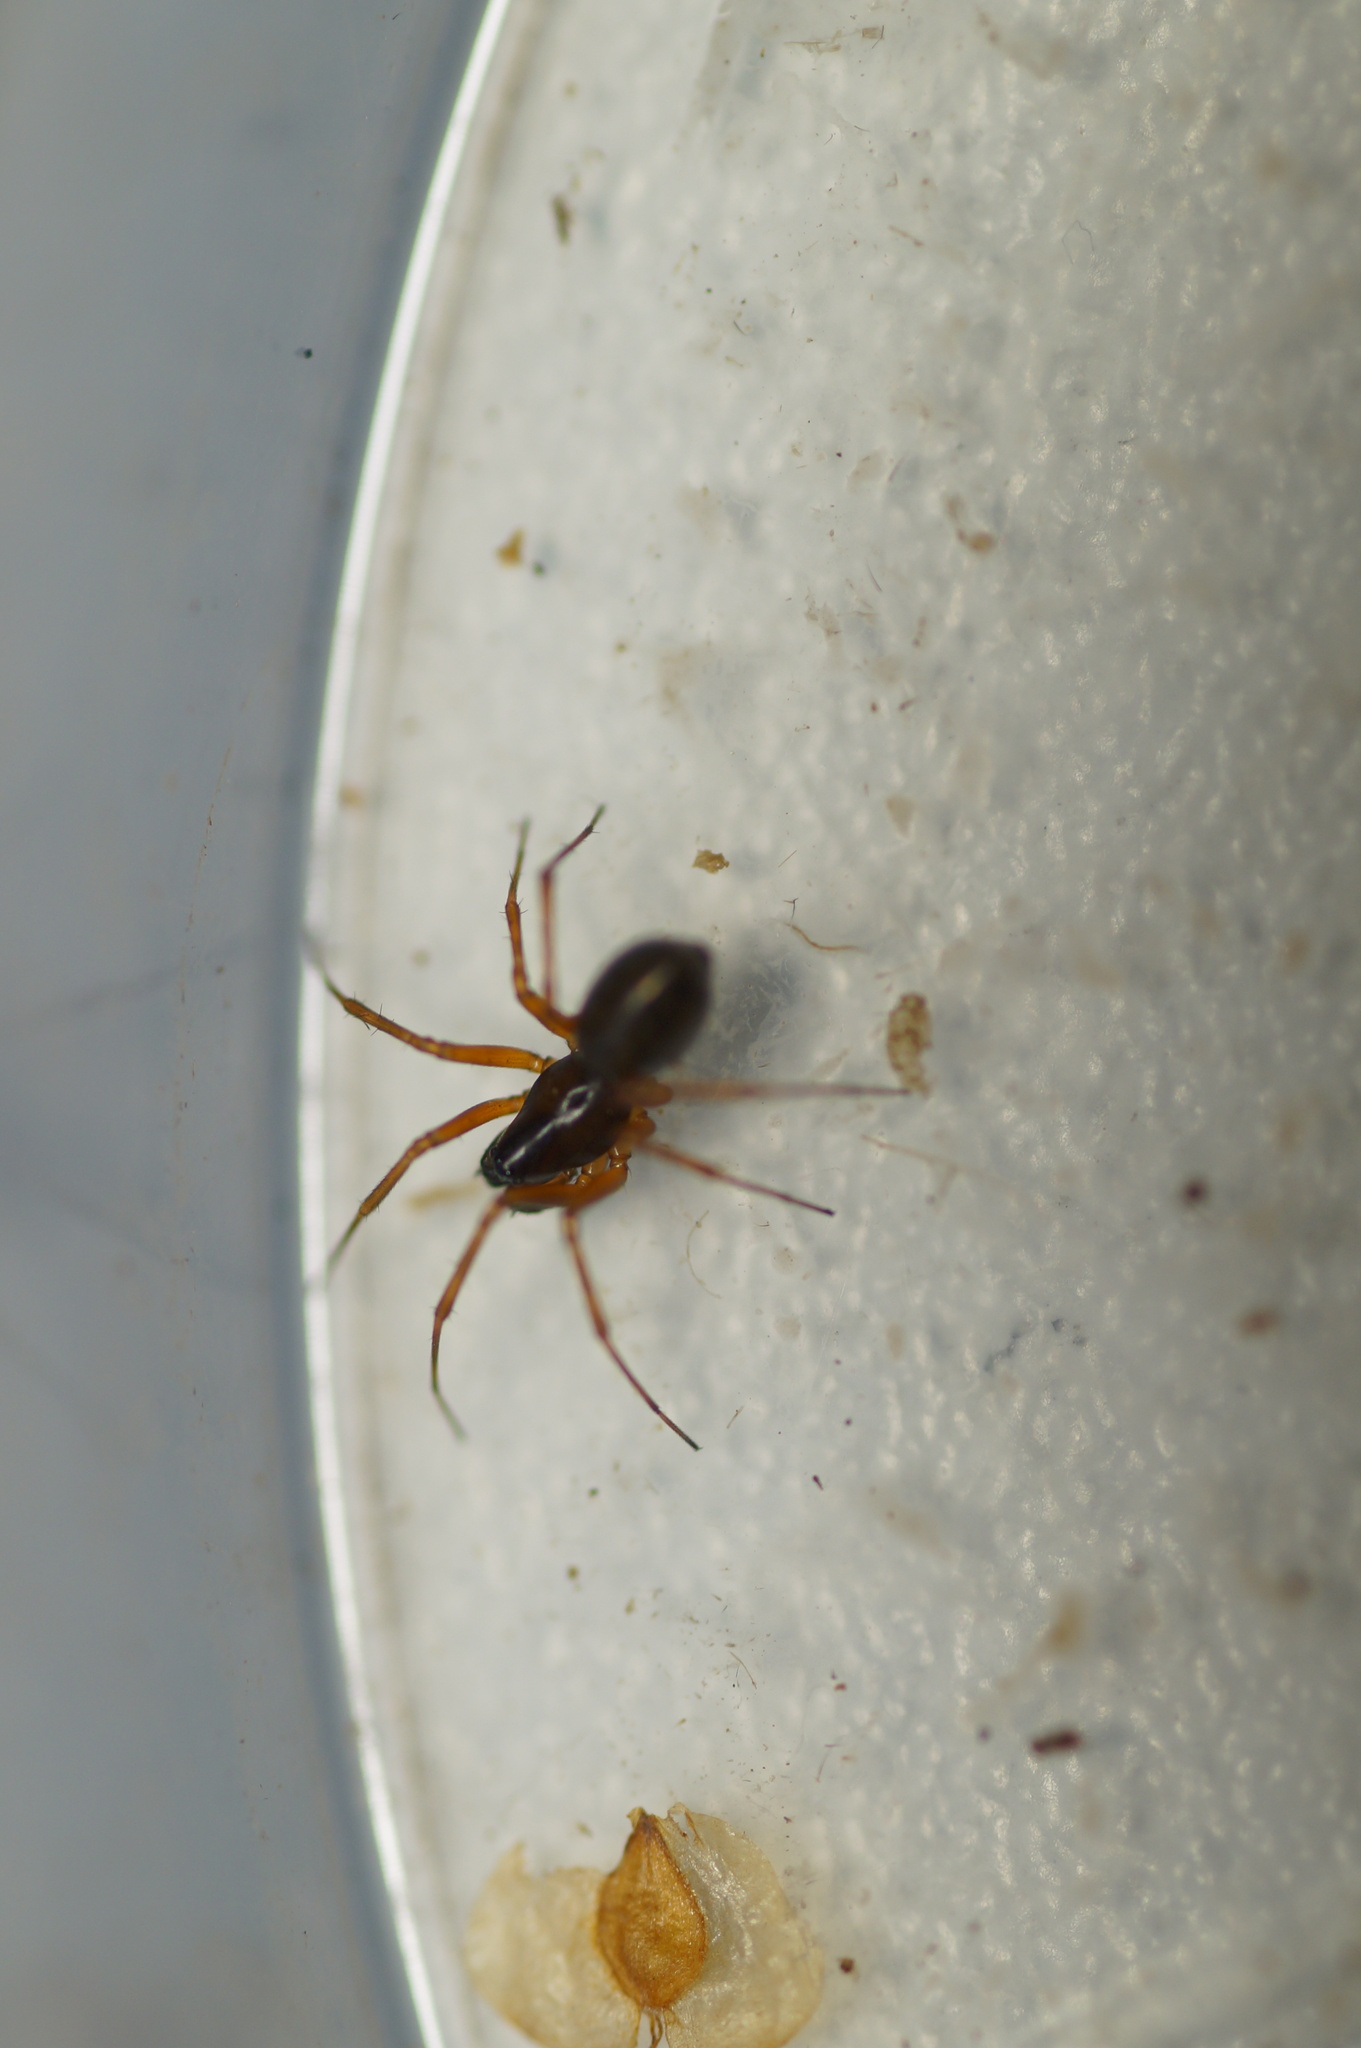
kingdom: Animalia
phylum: Arthropoda
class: Arachnida
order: Araneae
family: Linyphiidae
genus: Neriene
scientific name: Neriene clathrata
